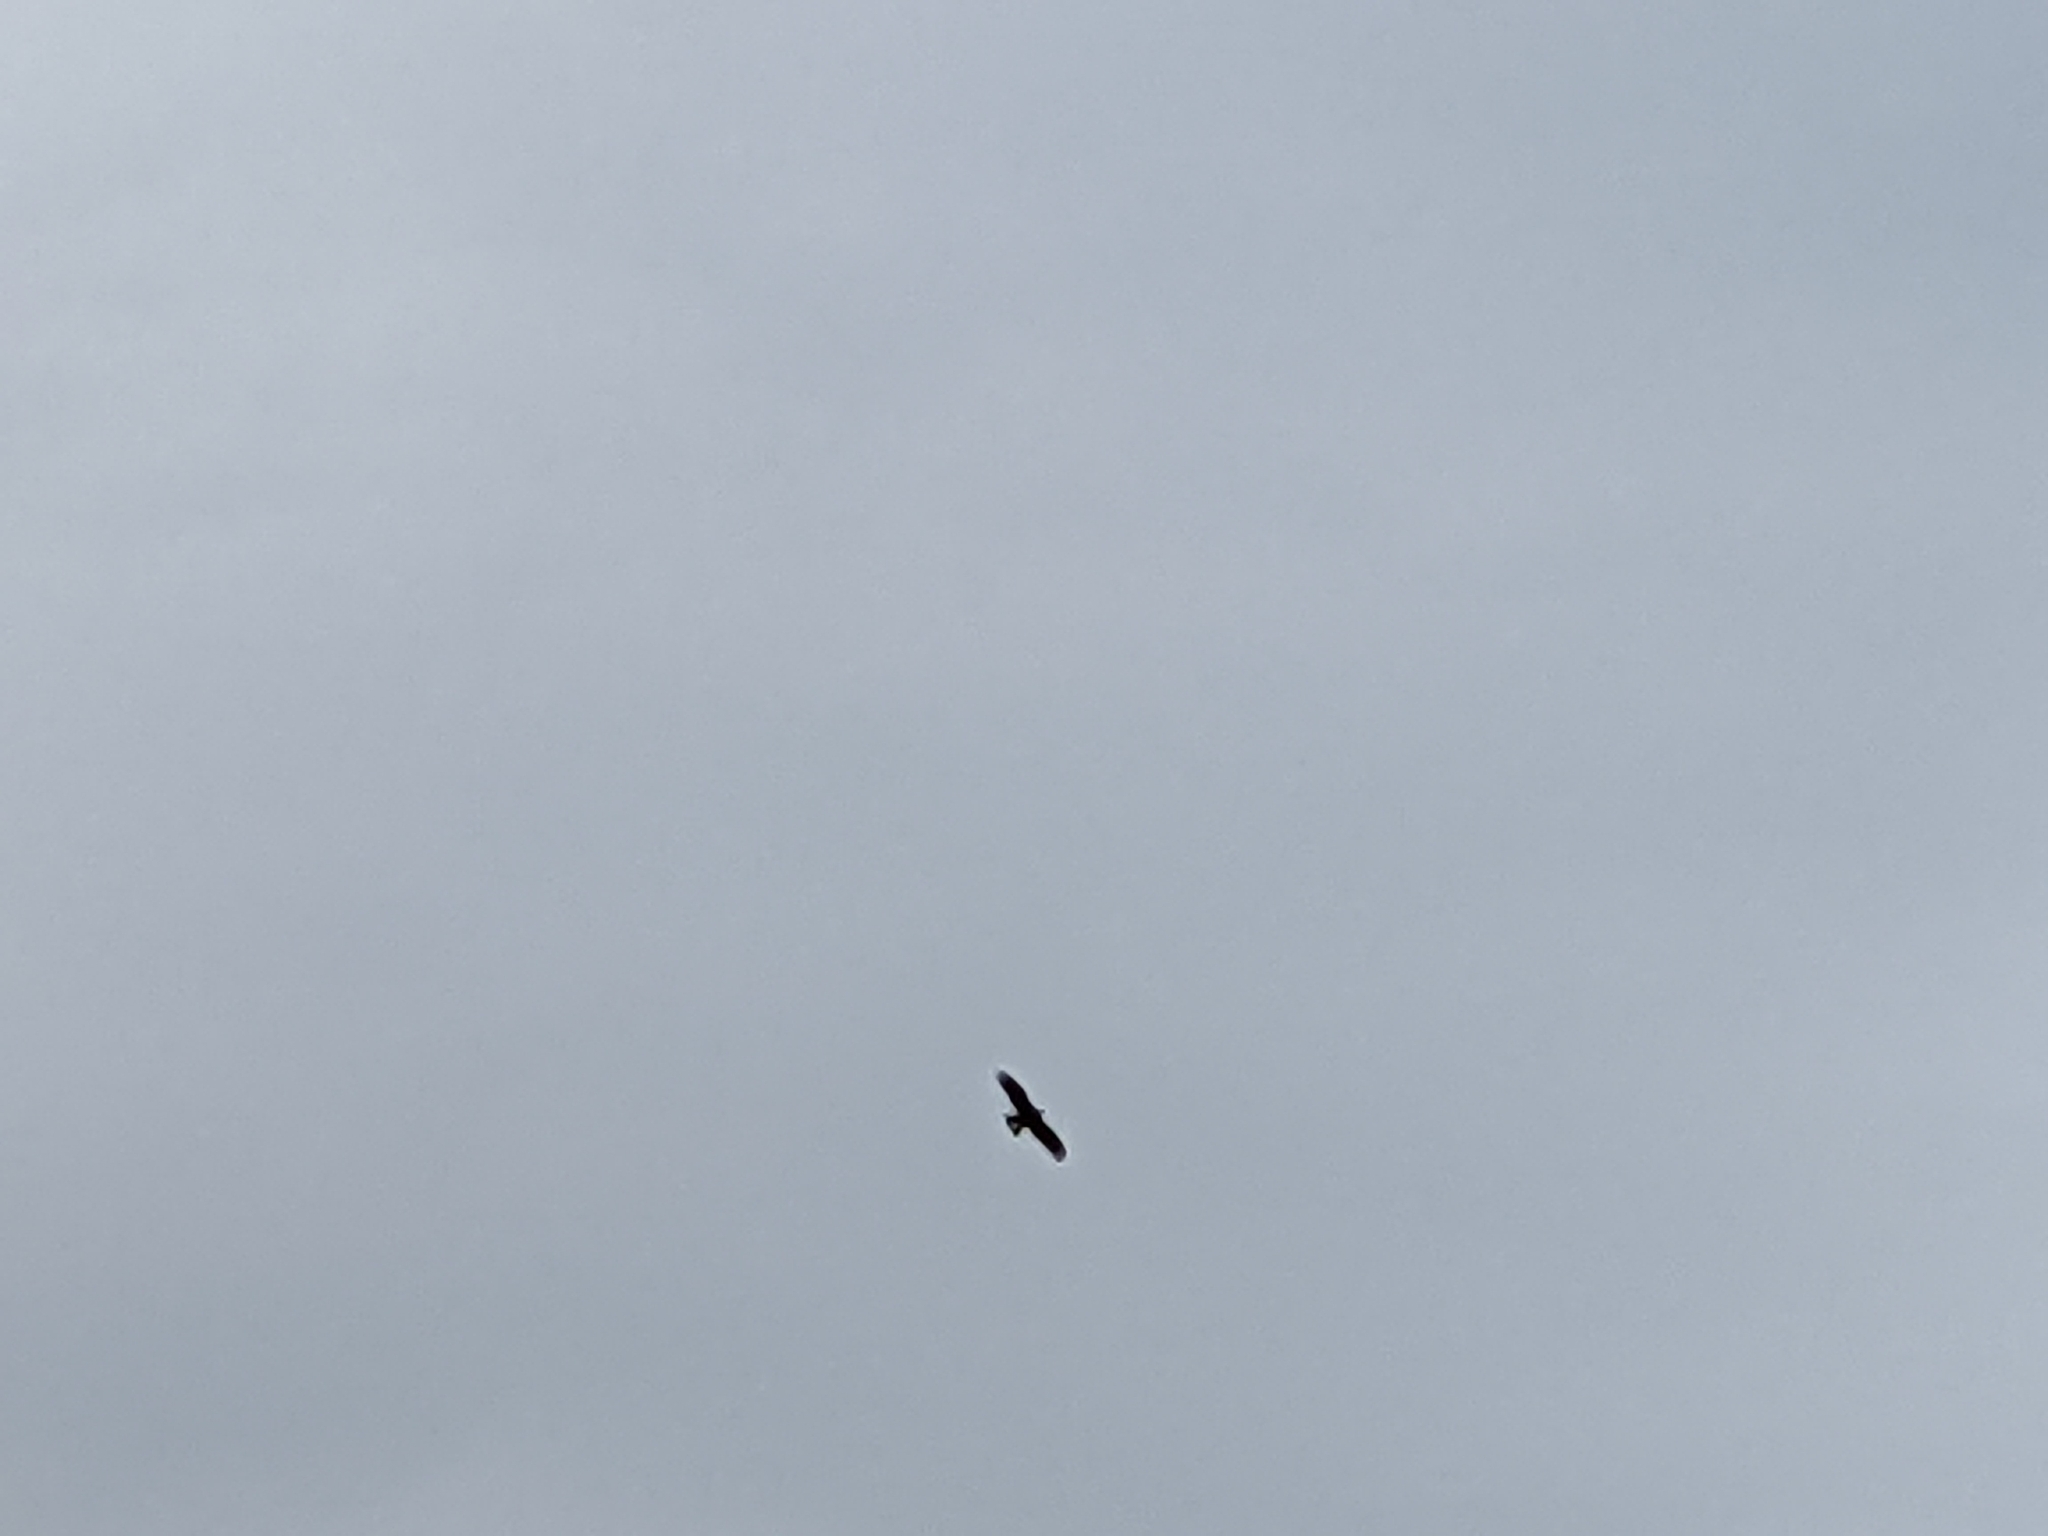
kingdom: Animalia
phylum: Chordata
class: Aves
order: Accipitriformes
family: Accipitridae
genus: Milvus
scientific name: Milvus migrans
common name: Black kite
